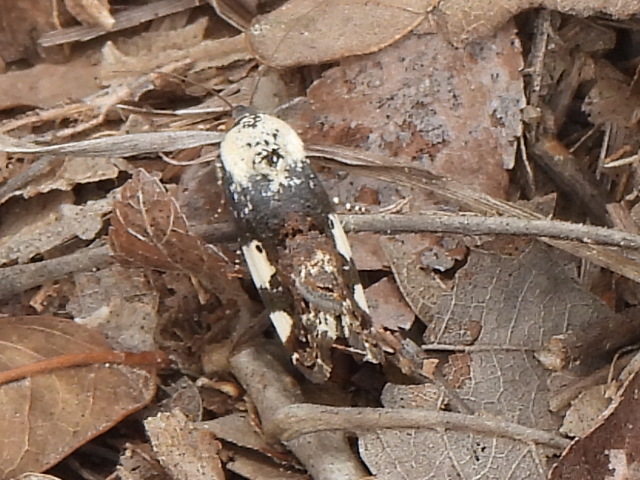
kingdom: Animalia
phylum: Arthropoda
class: Insecta
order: Lepidoptera
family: Noctuidae
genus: Acontia
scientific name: Acontia aprica
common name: Nun
